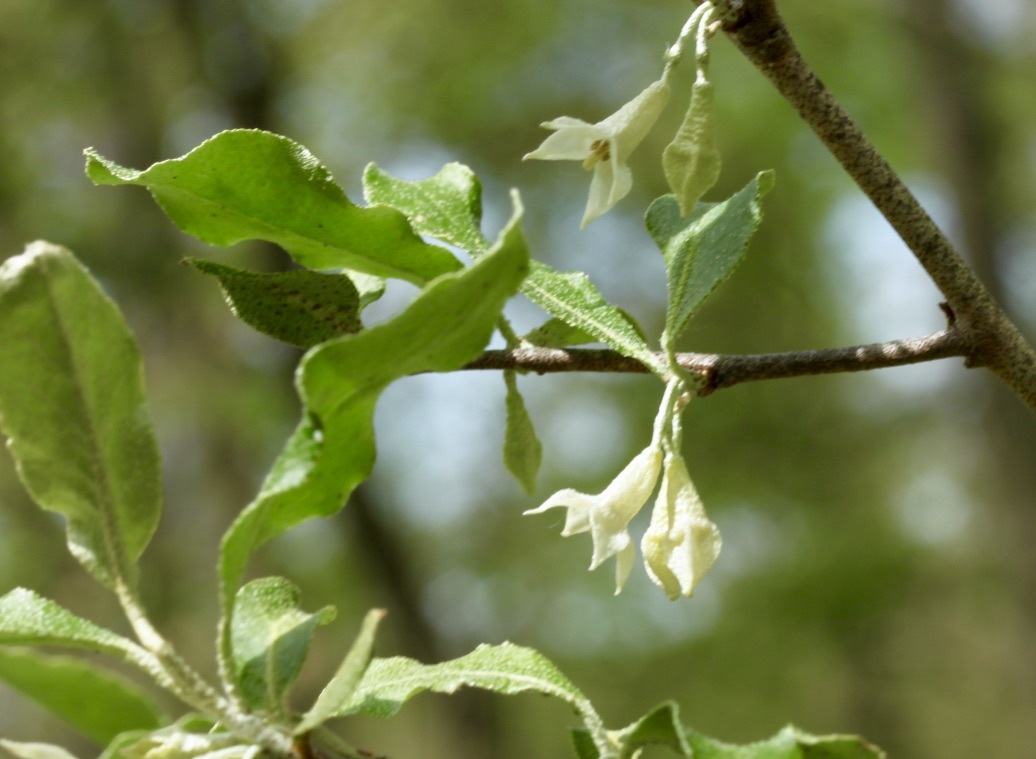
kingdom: Plantae
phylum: Tracheophyta
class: Magnoliopsida
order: Rosales
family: Elaeagnaceae
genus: Elaeagnus
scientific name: Elaeagnus umbellata
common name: Autumn olive
